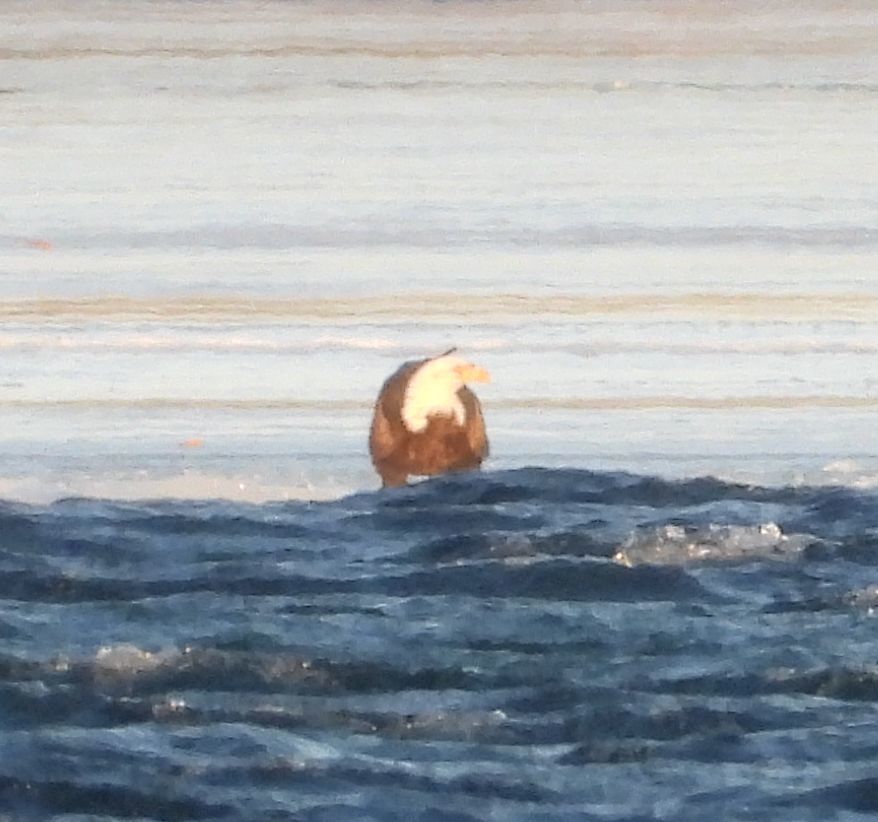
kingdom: Animalia
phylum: Chordata
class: Aves
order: Accipitriformes
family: Accipitridae
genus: Haliaeetus
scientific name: Haliaeetus leucocephalus
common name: Bald eagle
